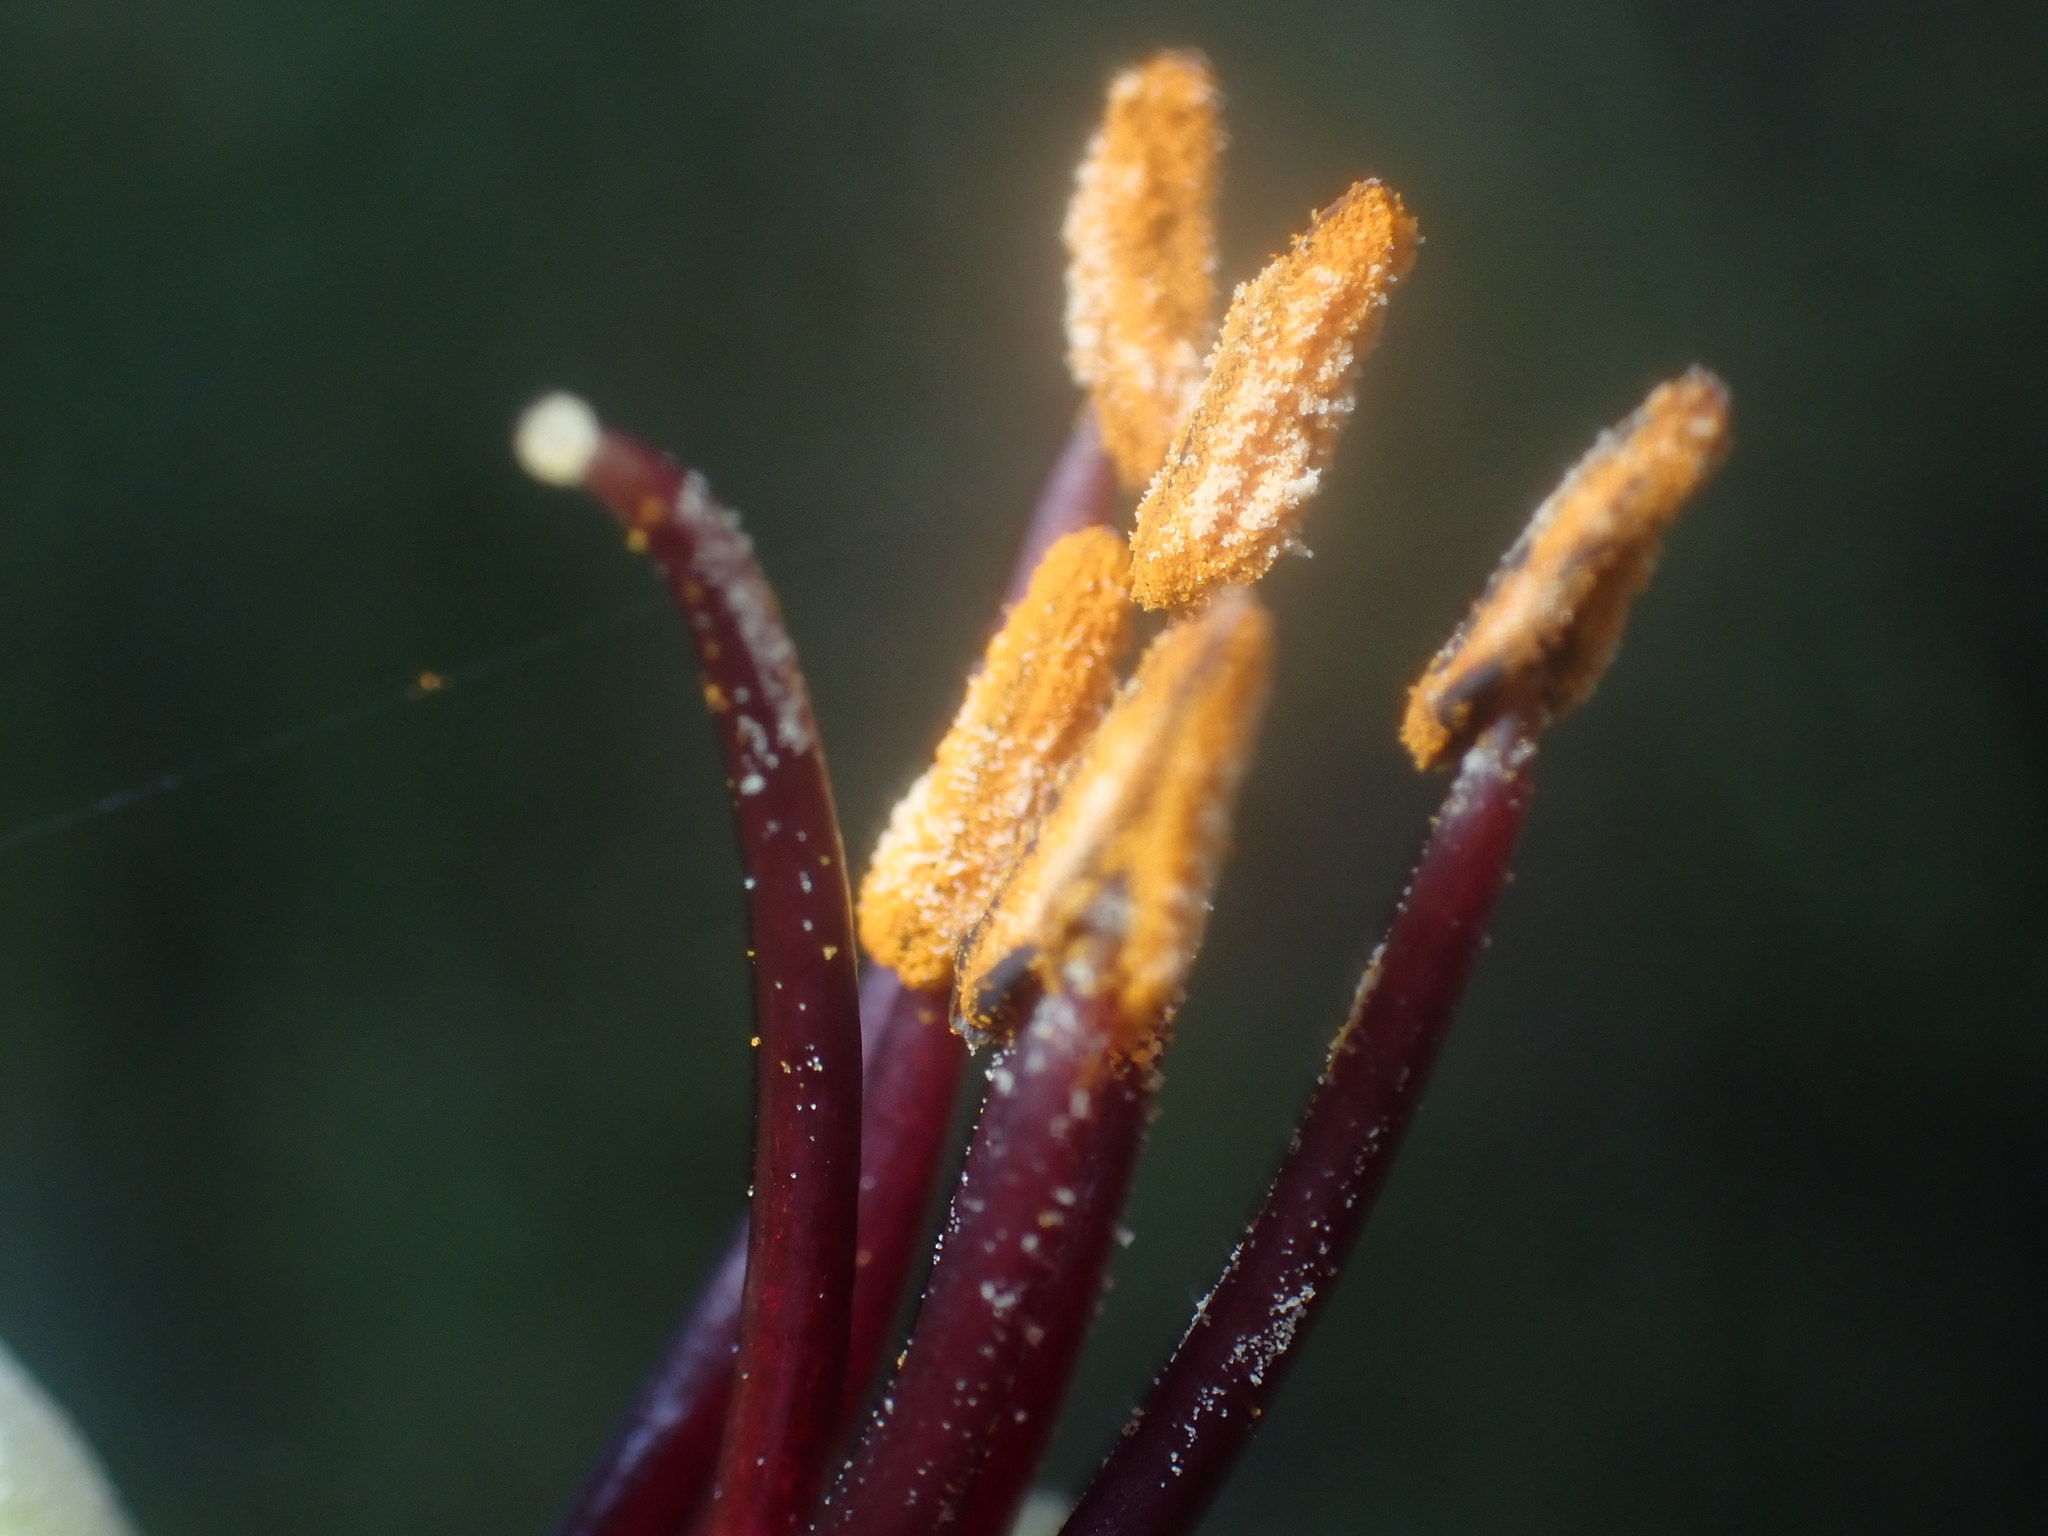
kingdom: Plantae
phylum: Tracheophyta
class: Liliopsida
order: Asparagales
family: Asphodelaceae
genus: Phormium
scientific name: Phormium colensoi
